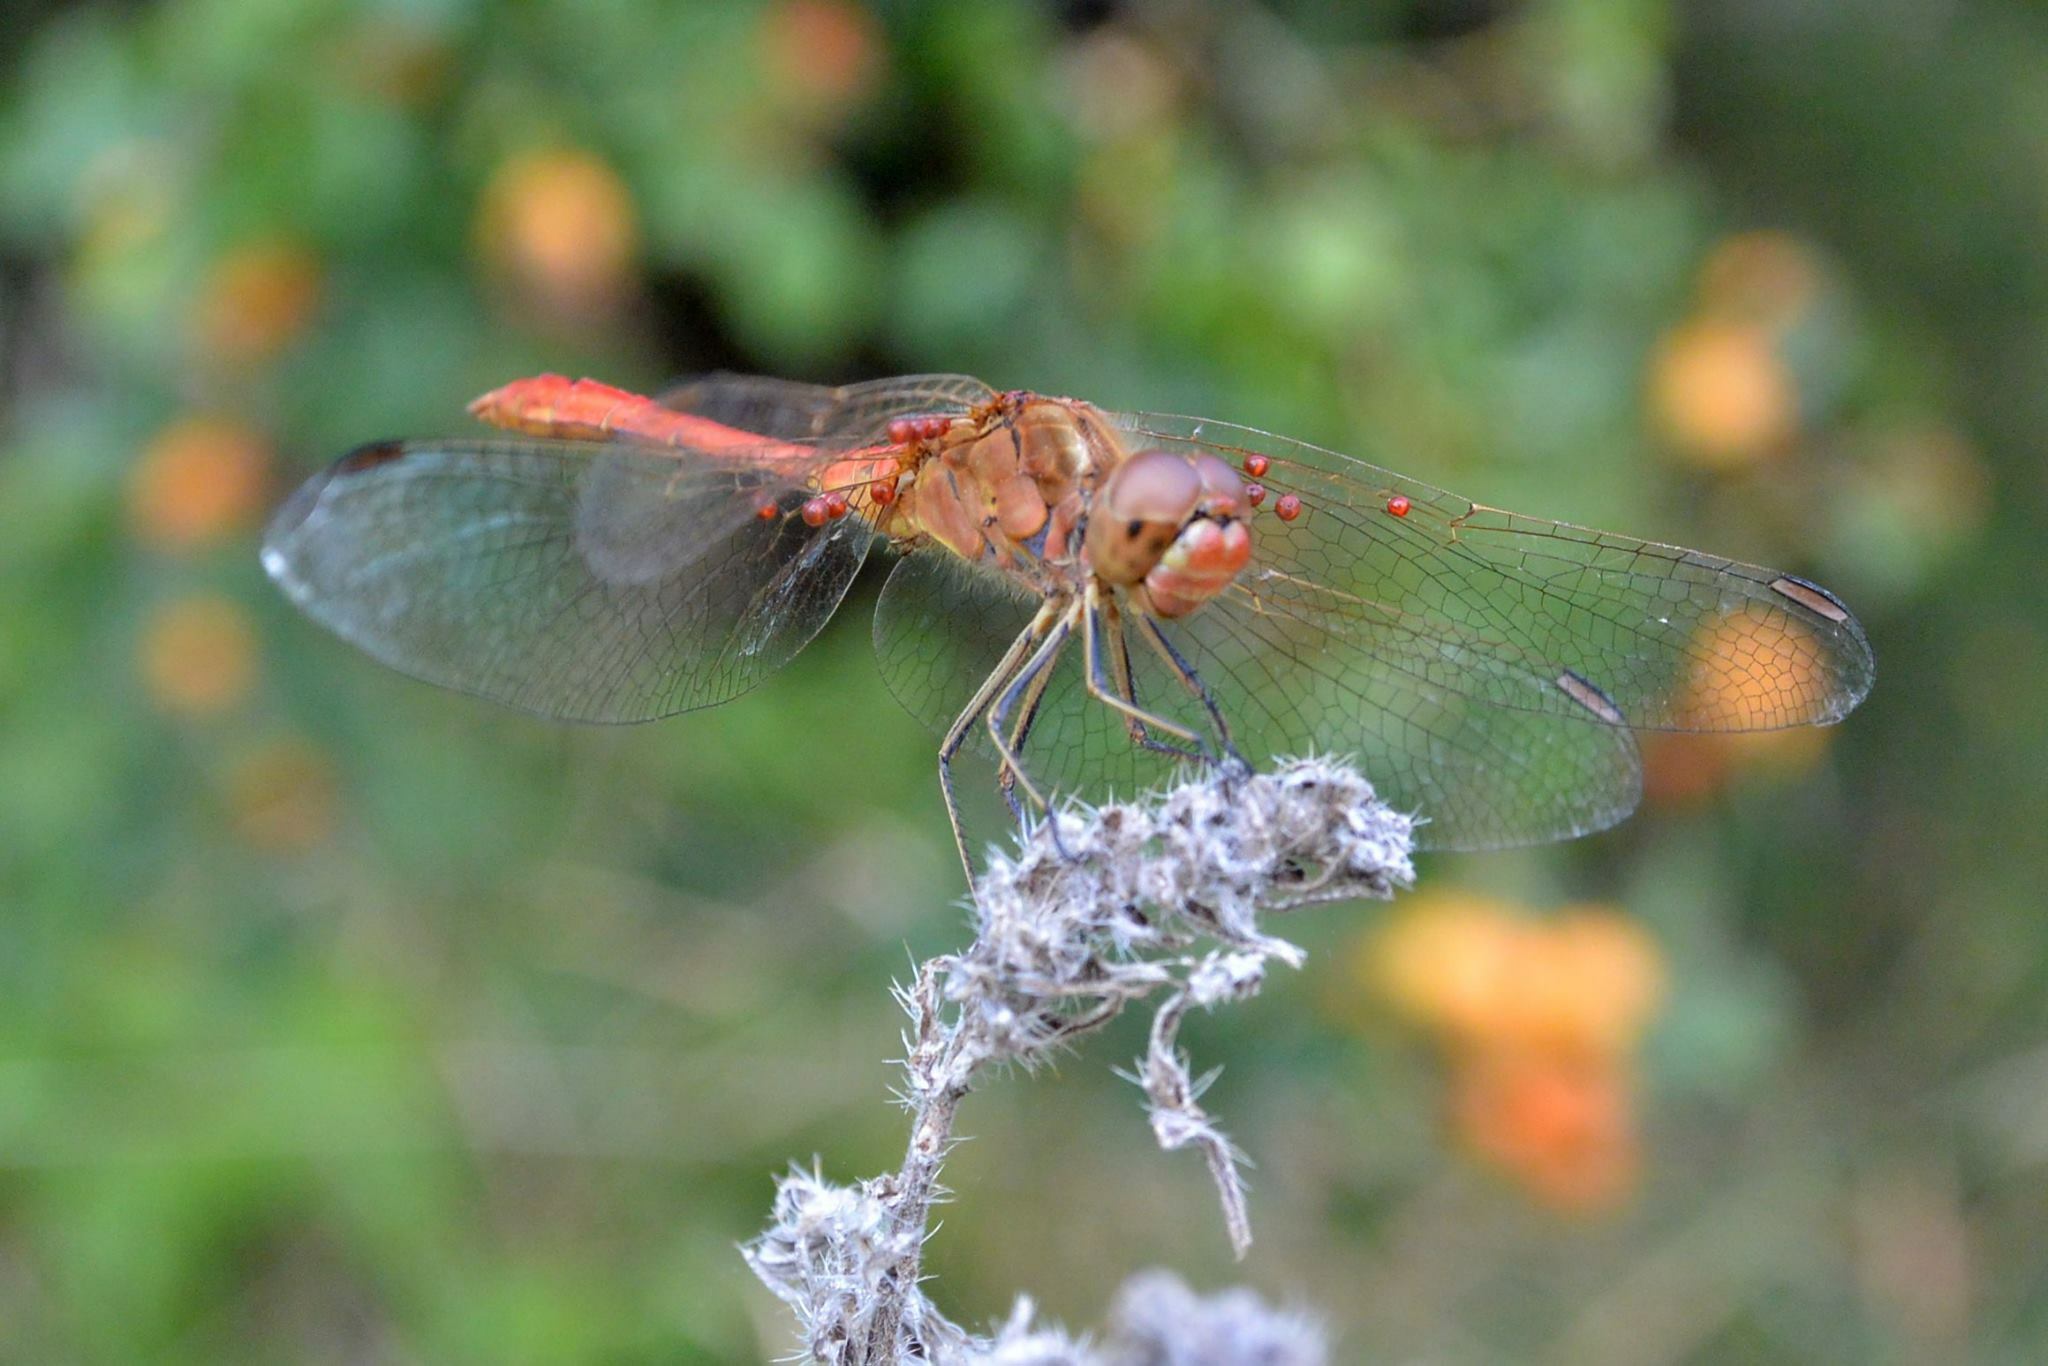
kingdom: Animalia
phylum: Arthropoda
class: Insecta
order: Odonata
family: Libellulidae
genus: Sympetrum
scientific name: Sympetrum meridionale
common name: Southern darter
